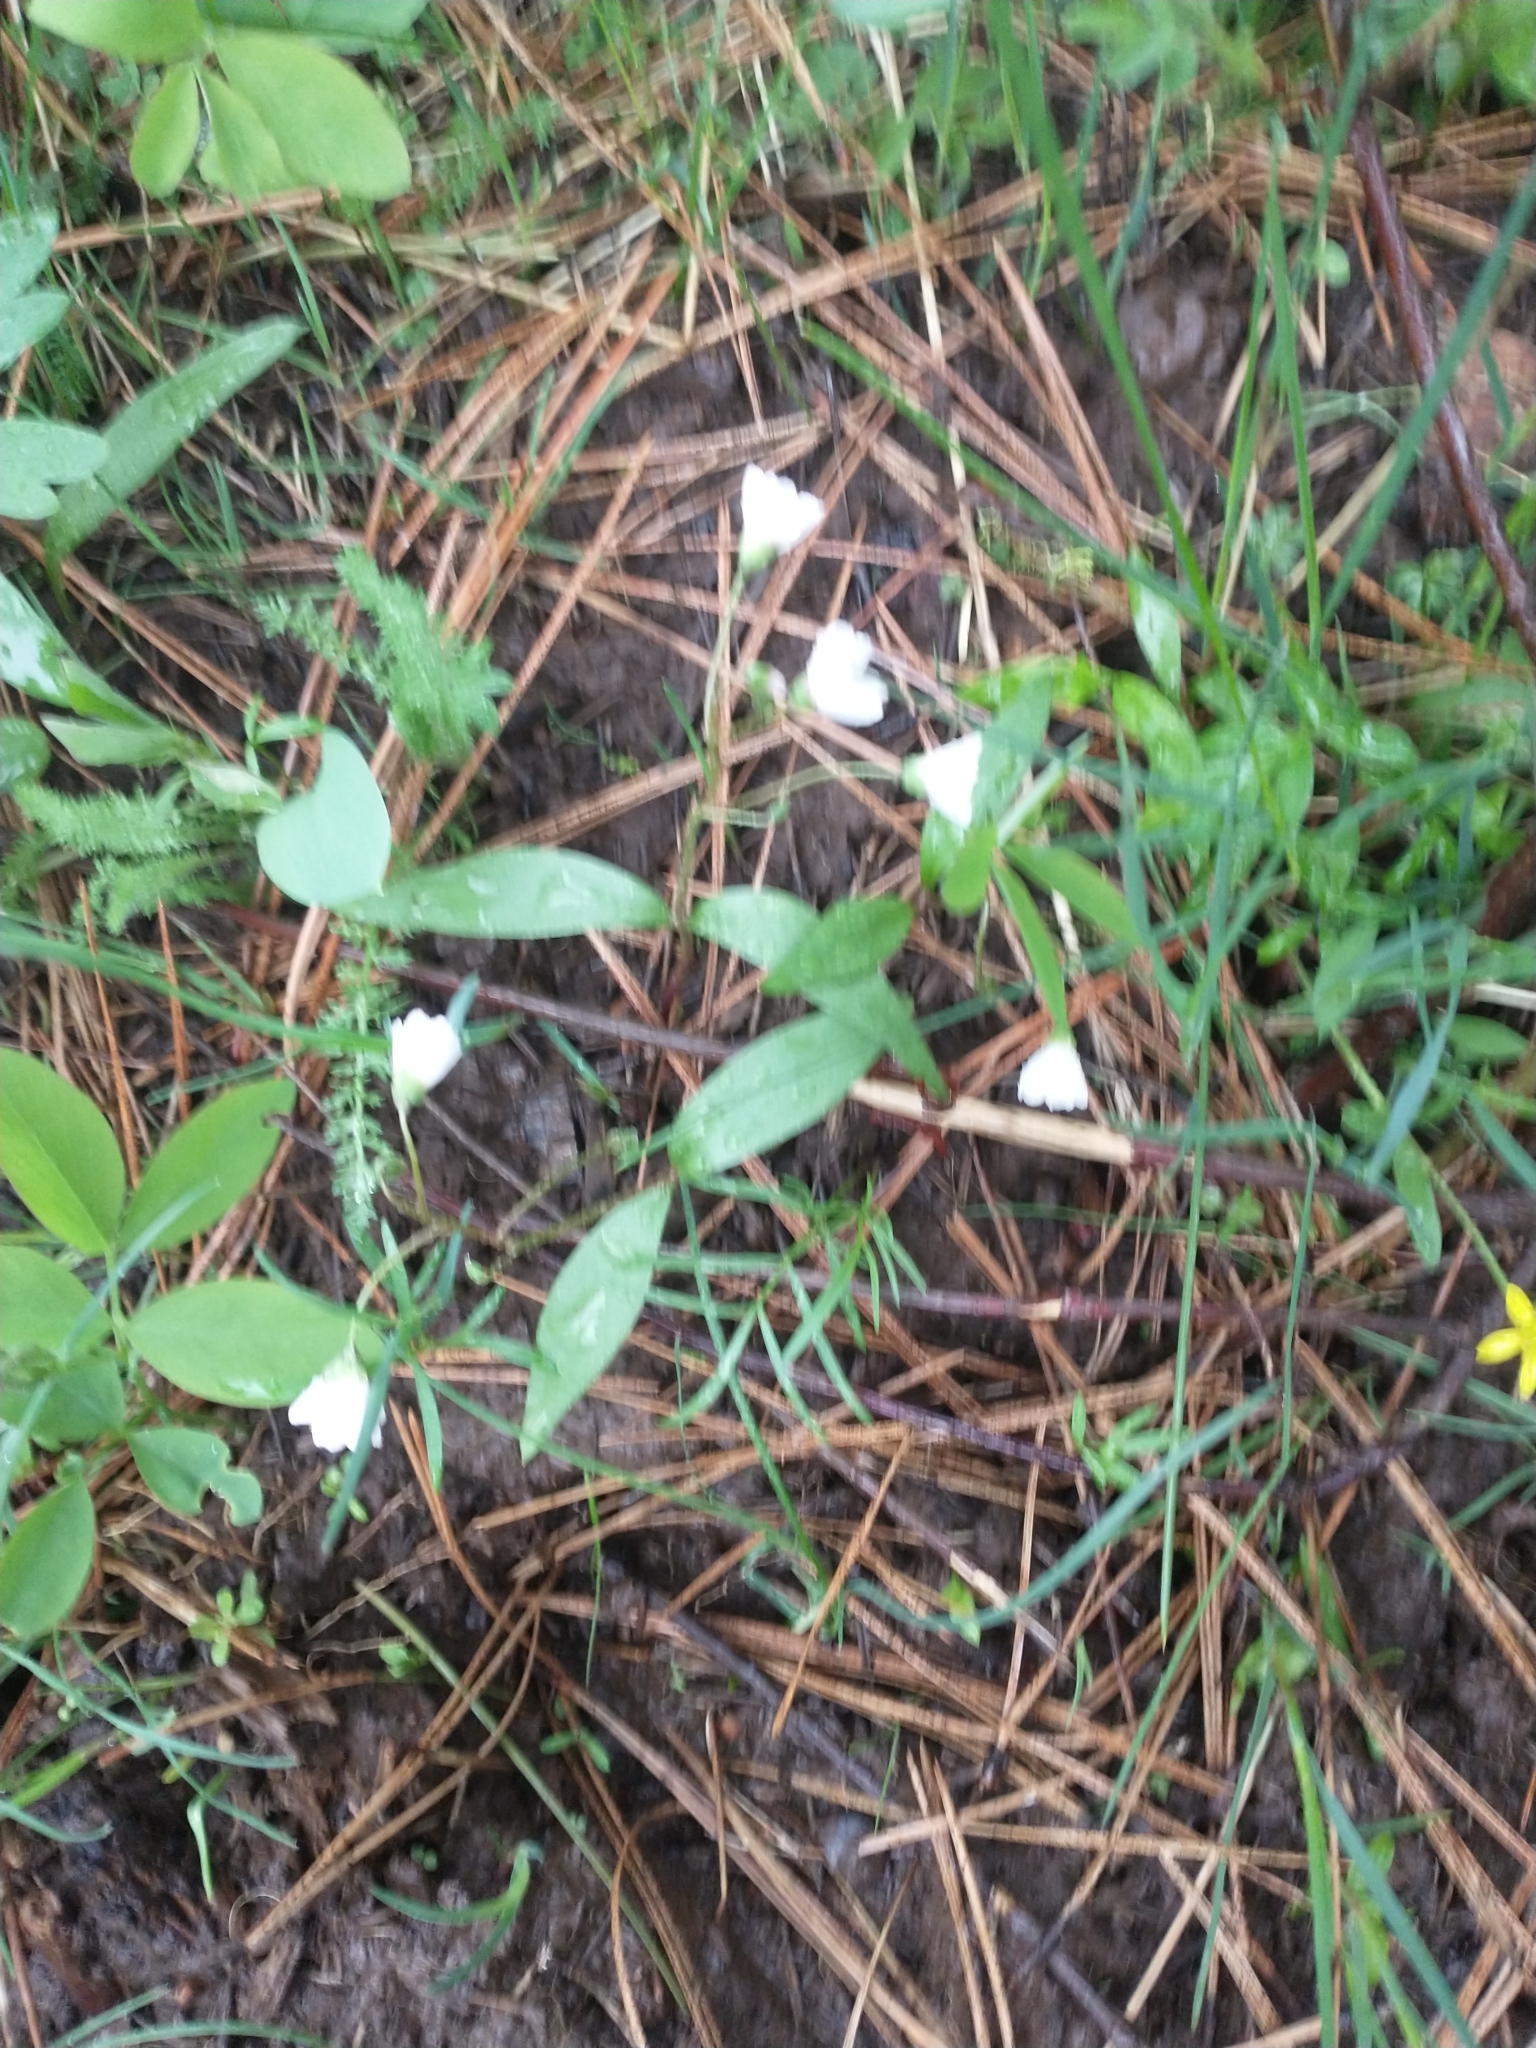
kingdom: Plantae
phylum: Tracheophyta
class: Magnoliopsida
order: Caryophyllales
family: Montiaceae
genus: Claytonia
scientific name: Claytonia lanceolata
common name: Western spring-beauty
